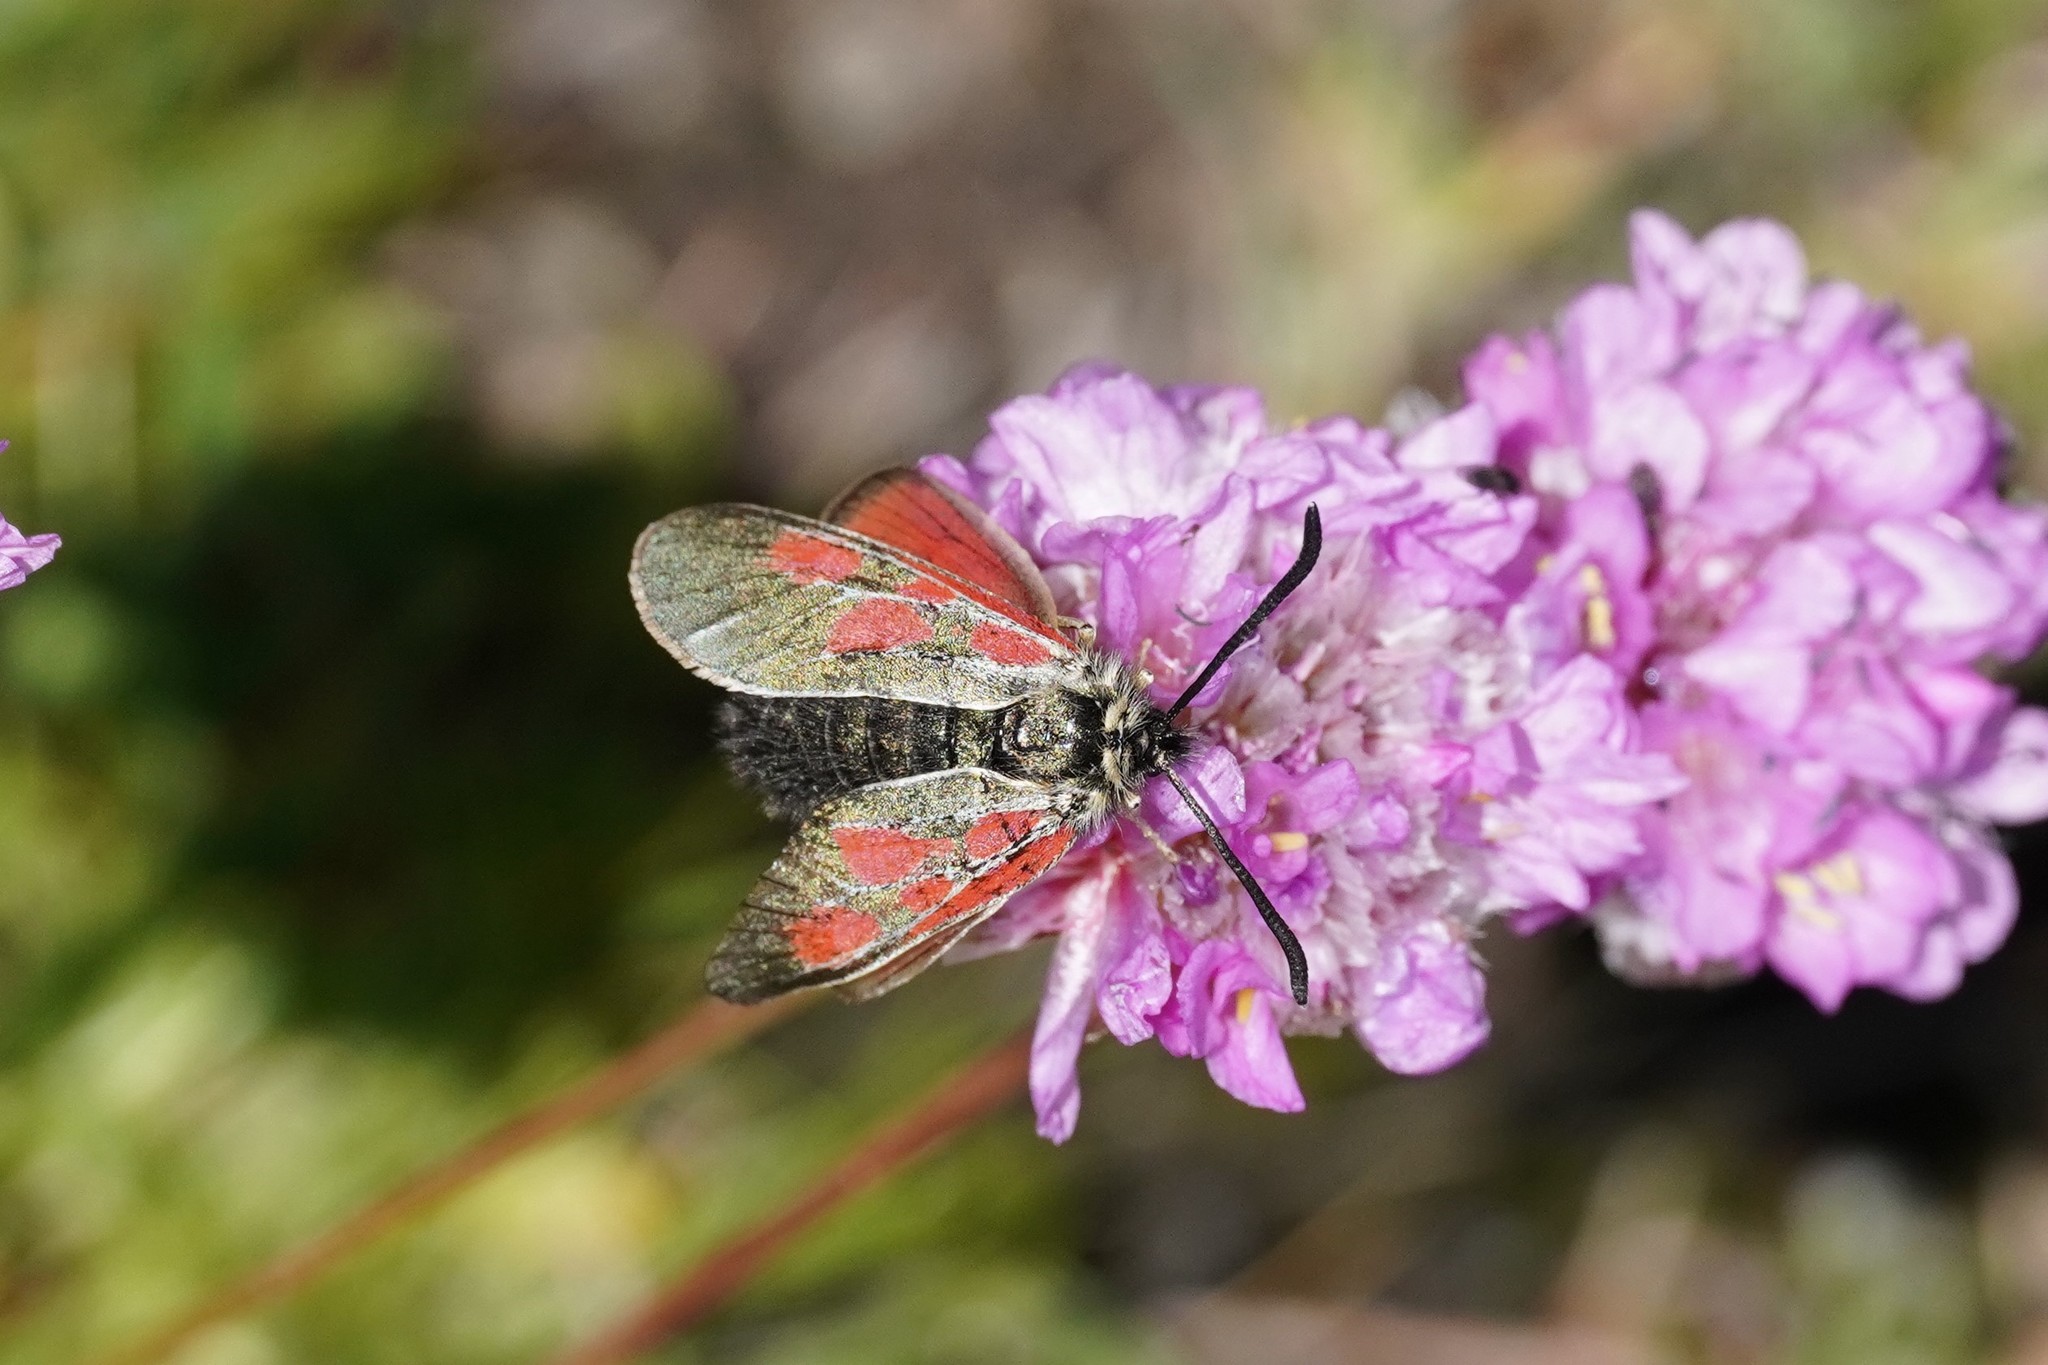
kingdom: Animalia
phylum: Arthropoda
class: Insecta
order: Lepidoptera
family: Zygaenidae
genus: Zygaena
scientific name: Zygaena exulans
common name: Scotch burnet
